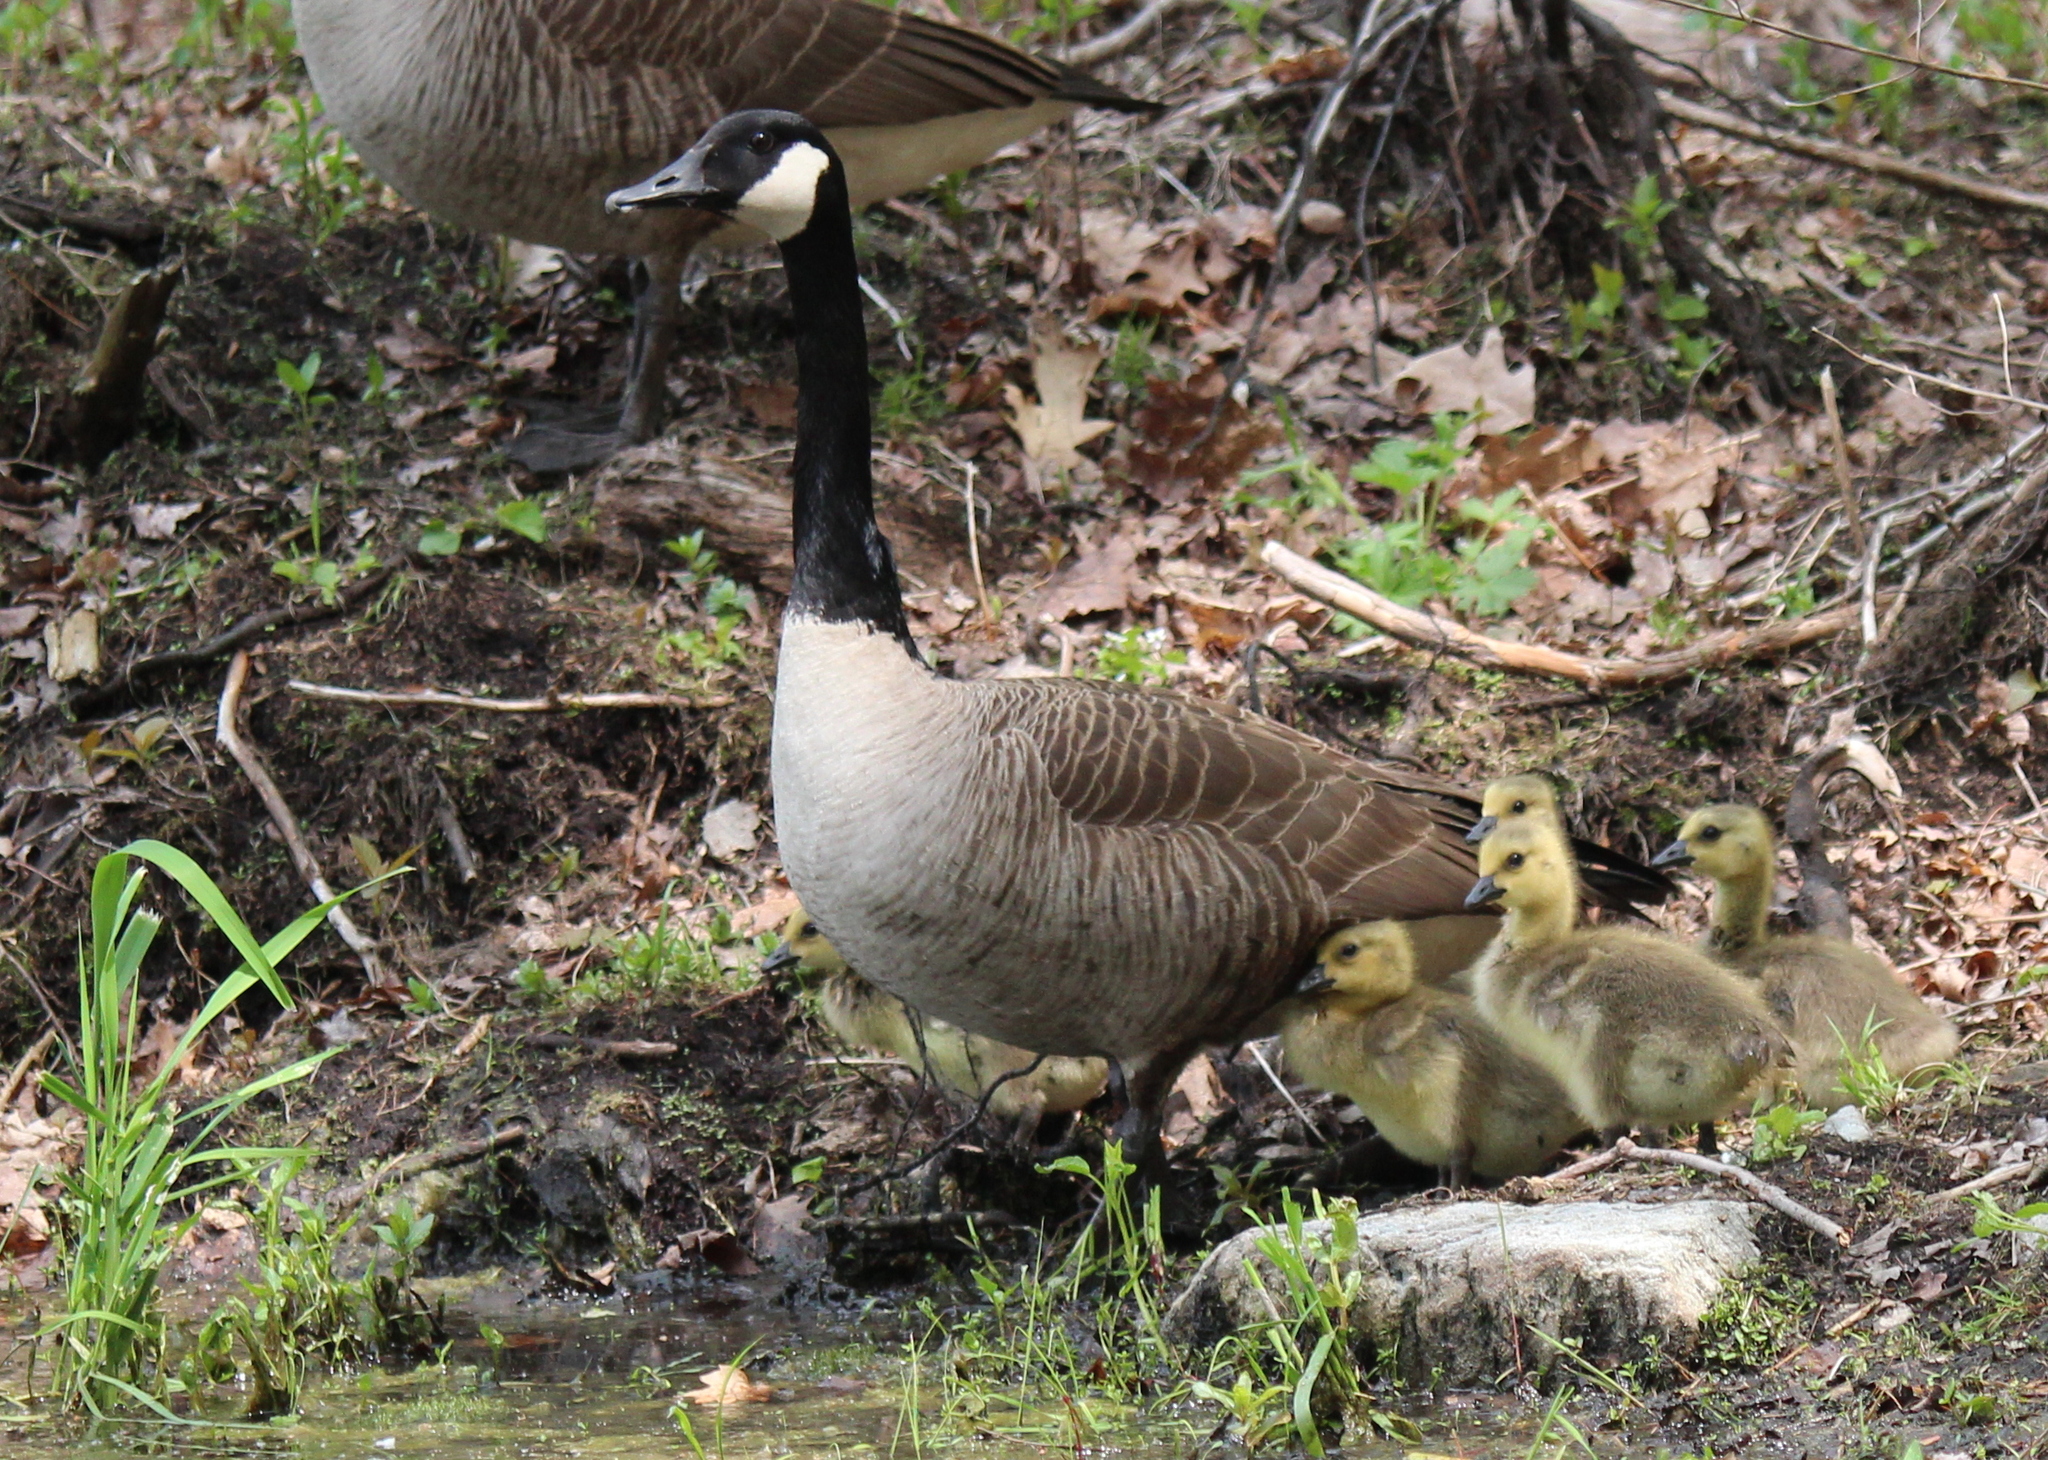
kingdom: Animalia
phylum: Chordata
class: Aves
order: Anseriformes
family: Anatidae
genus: Branta
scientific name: Branta canadensis
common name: Canada goose
